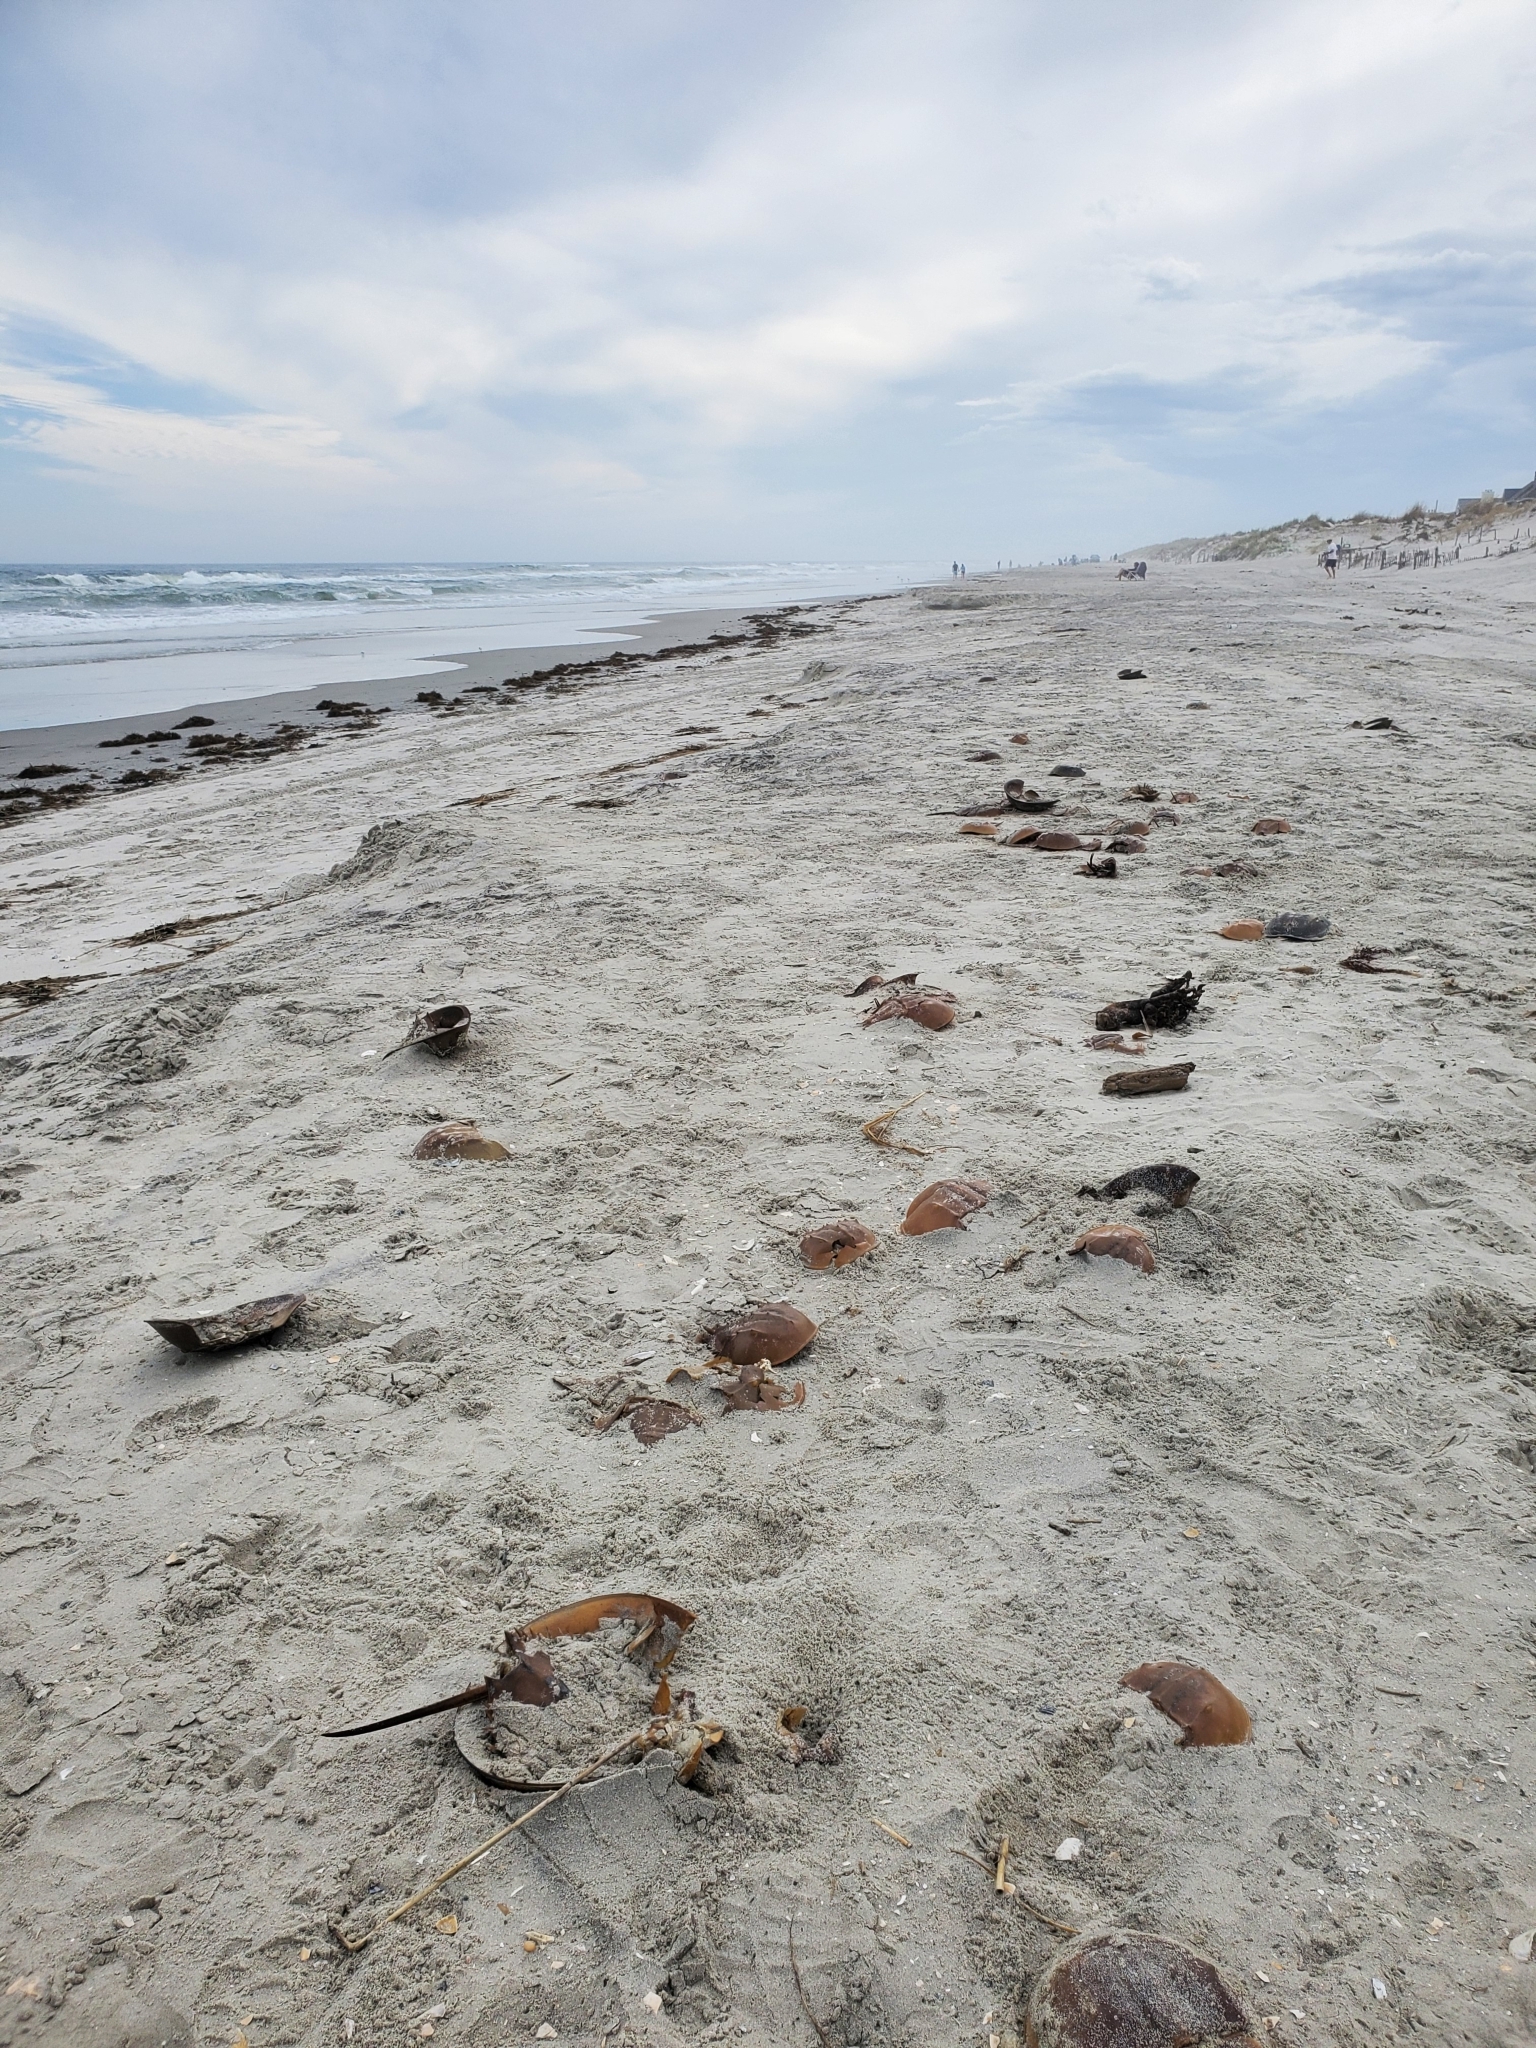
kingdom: Animalia
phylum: Arthropoda
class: Merostomata
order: Xiphosurida
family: Limulidae
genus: Limulus
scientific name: Limulus polyphemus
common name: Horseshoe crab
